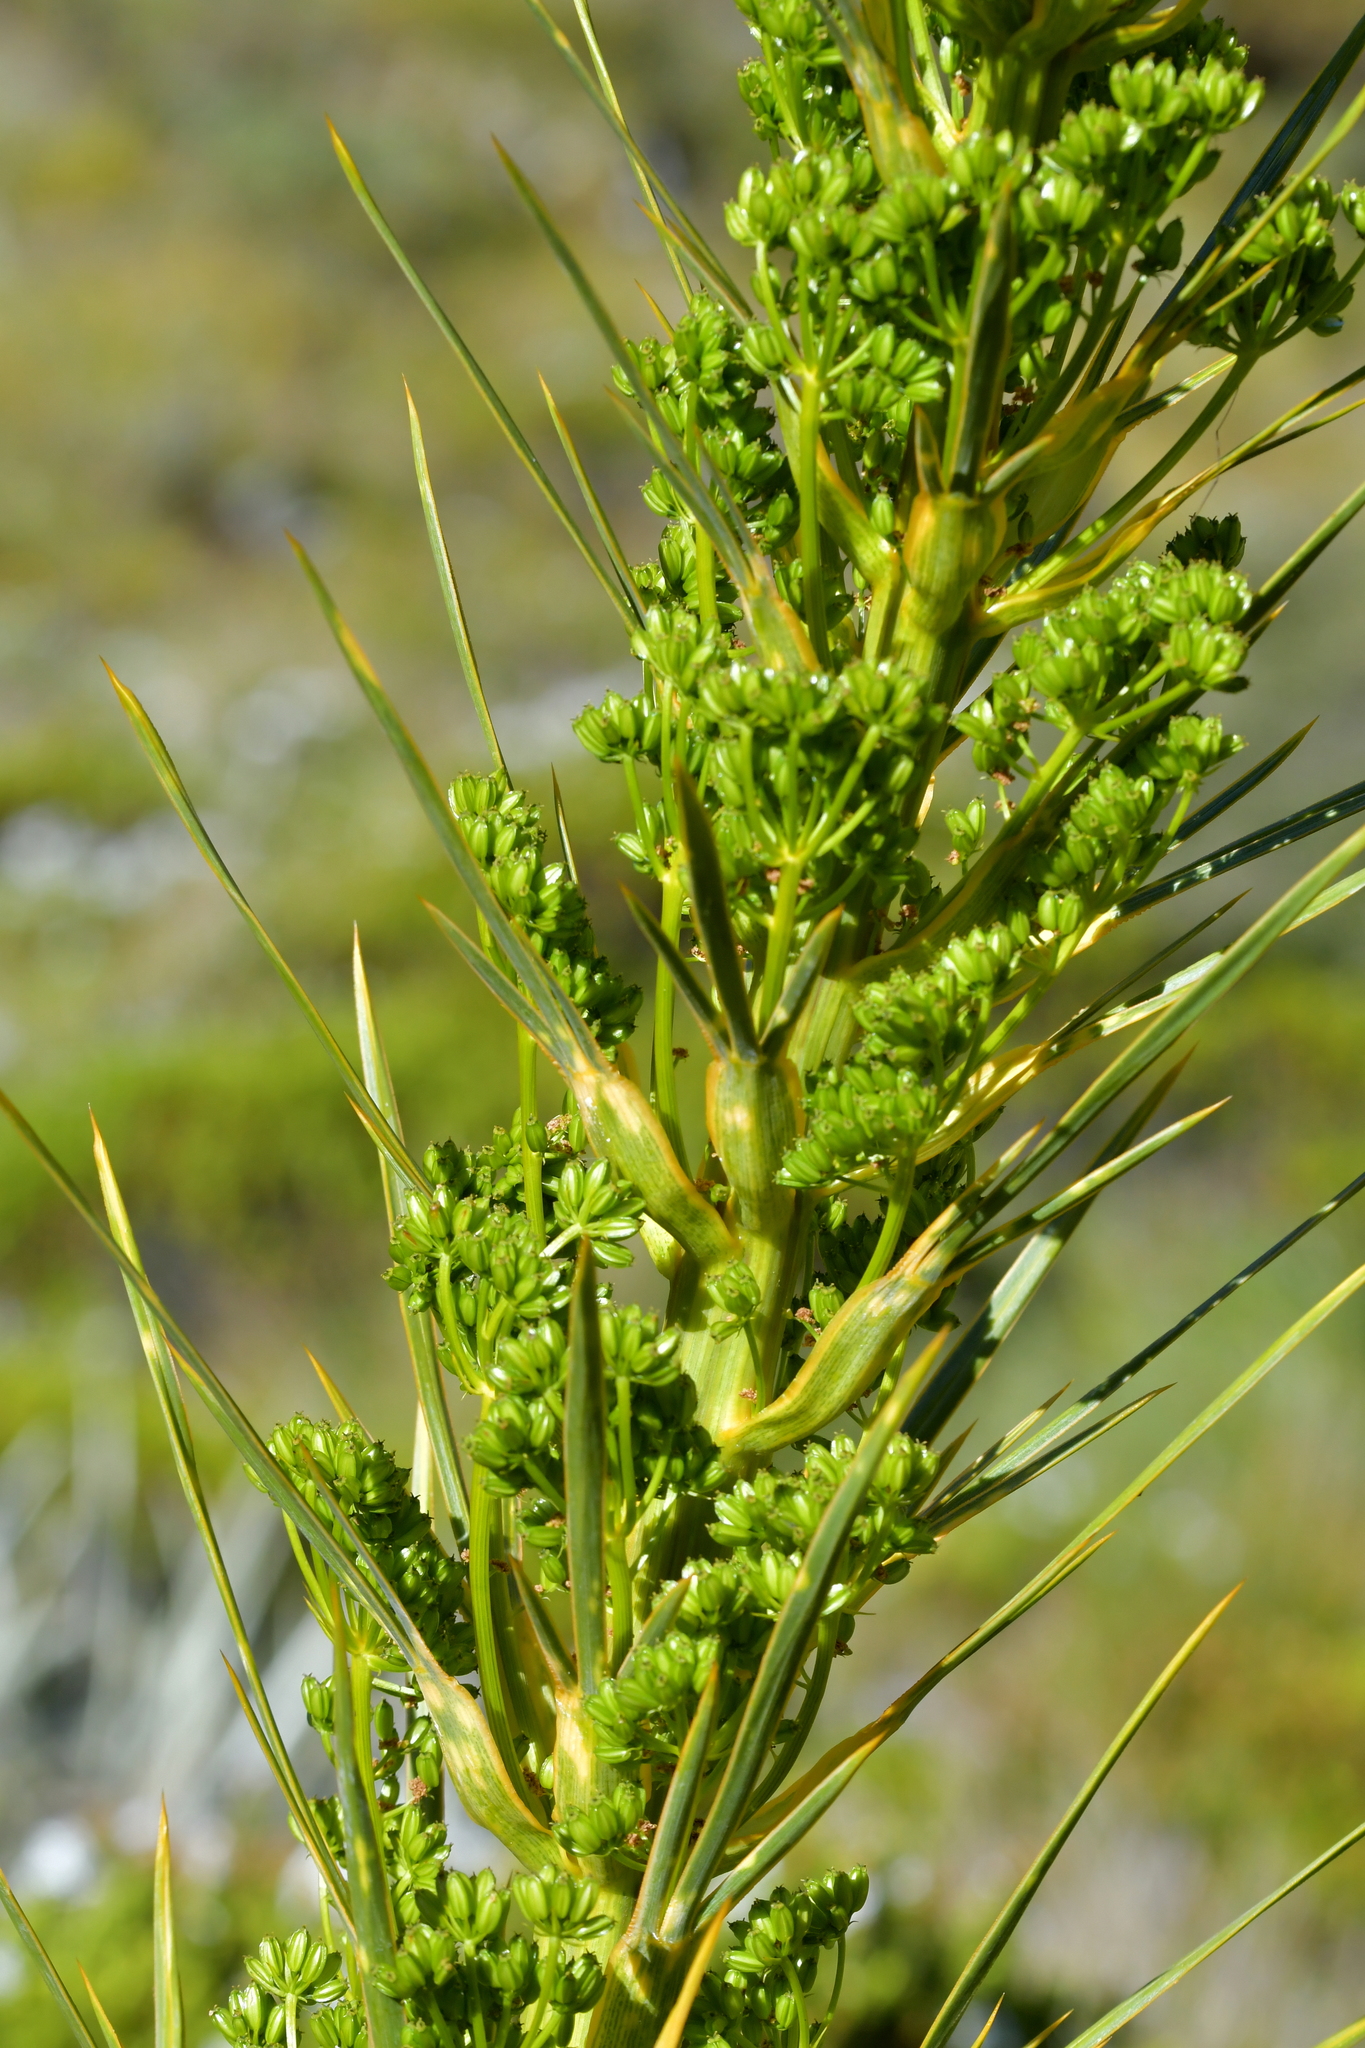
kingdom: Plantae
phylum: Tracheophyta
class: Magnoliopsida
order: Apiales
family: Apiaceae
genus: Aciphylla
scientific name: Aciphylla horrida
